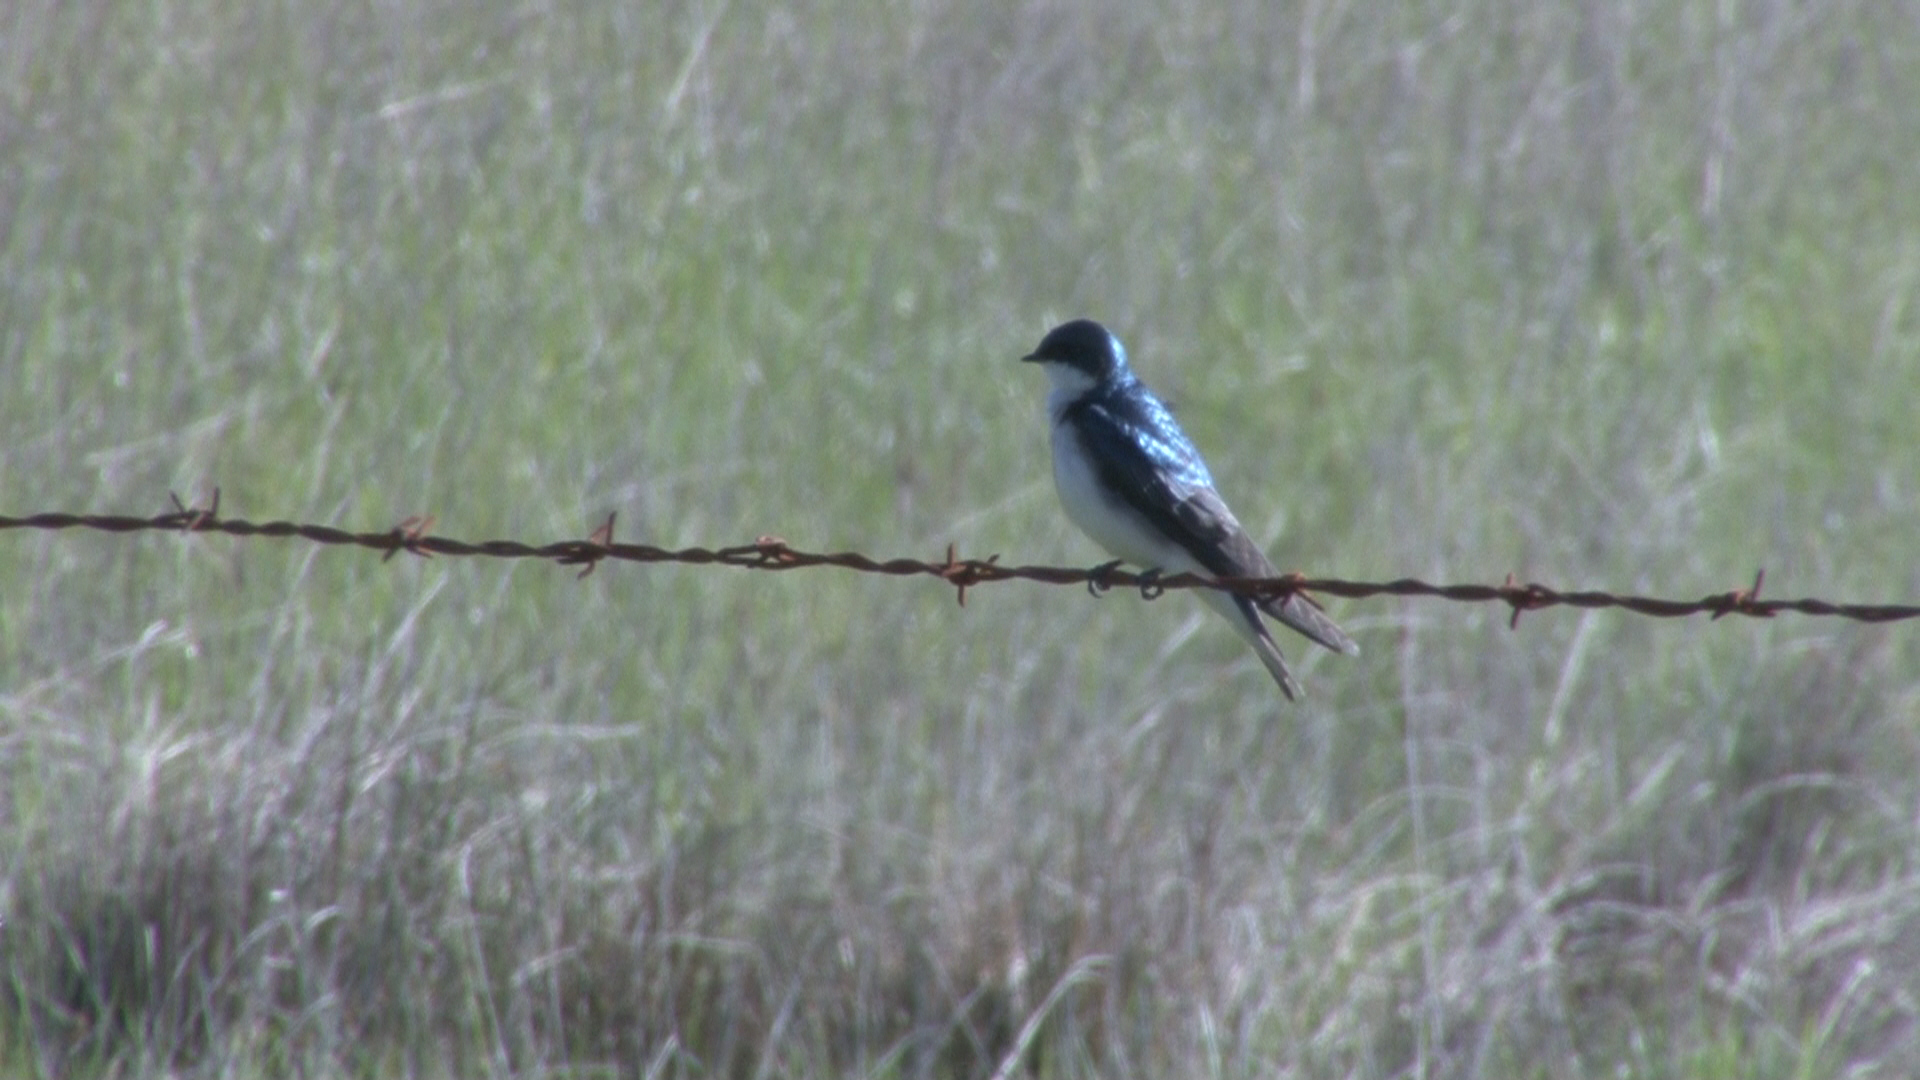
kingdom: Animalia
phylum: Chordata
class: Aves
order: Passeriformes
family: Hirundinidae
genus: Tachycineta
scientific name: Tachycineta bicolor
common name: Tree swallow
